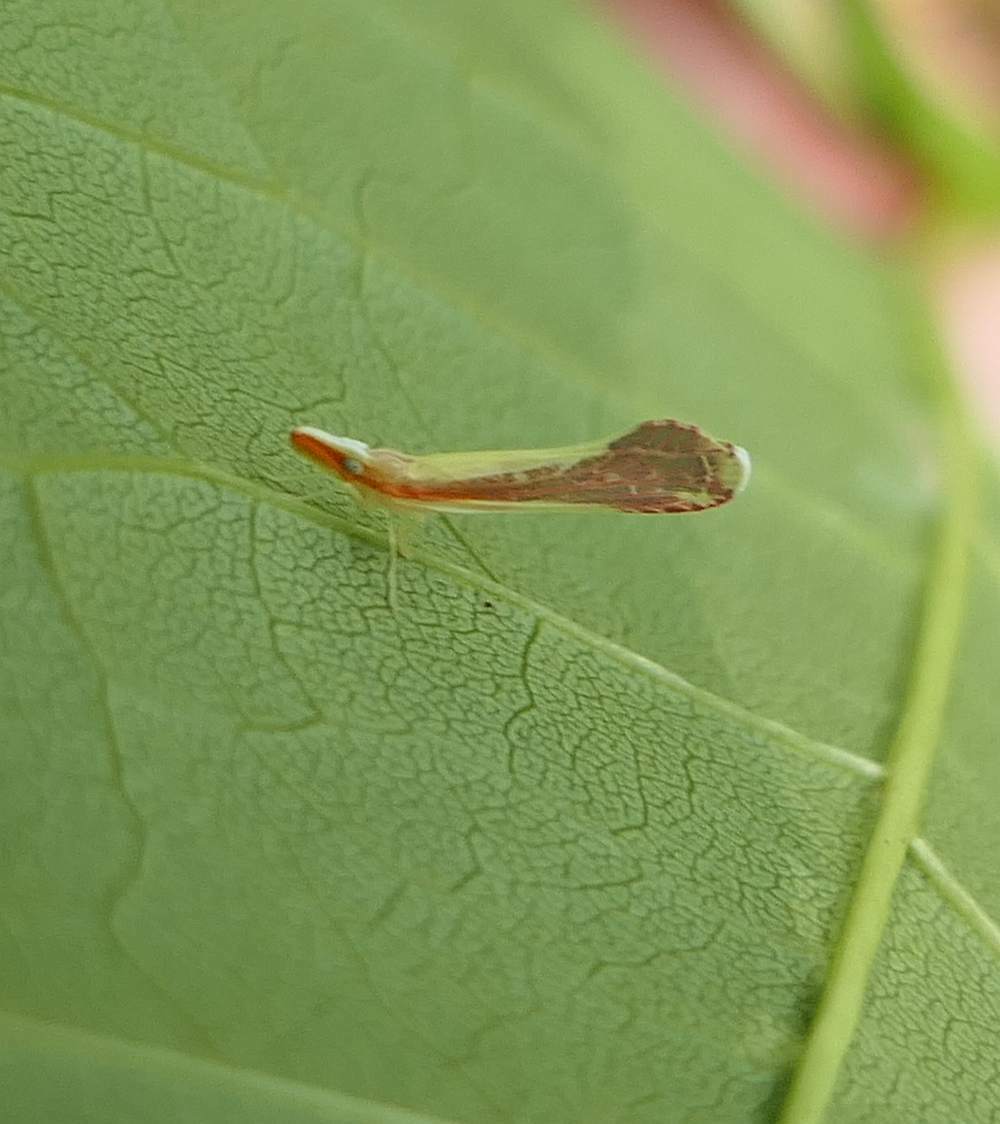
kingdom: Animalia
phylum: Arthropoda
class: Insecta
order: Hemiptera
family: Derbidae
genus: Shellenius
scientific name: Shellenius ballii
